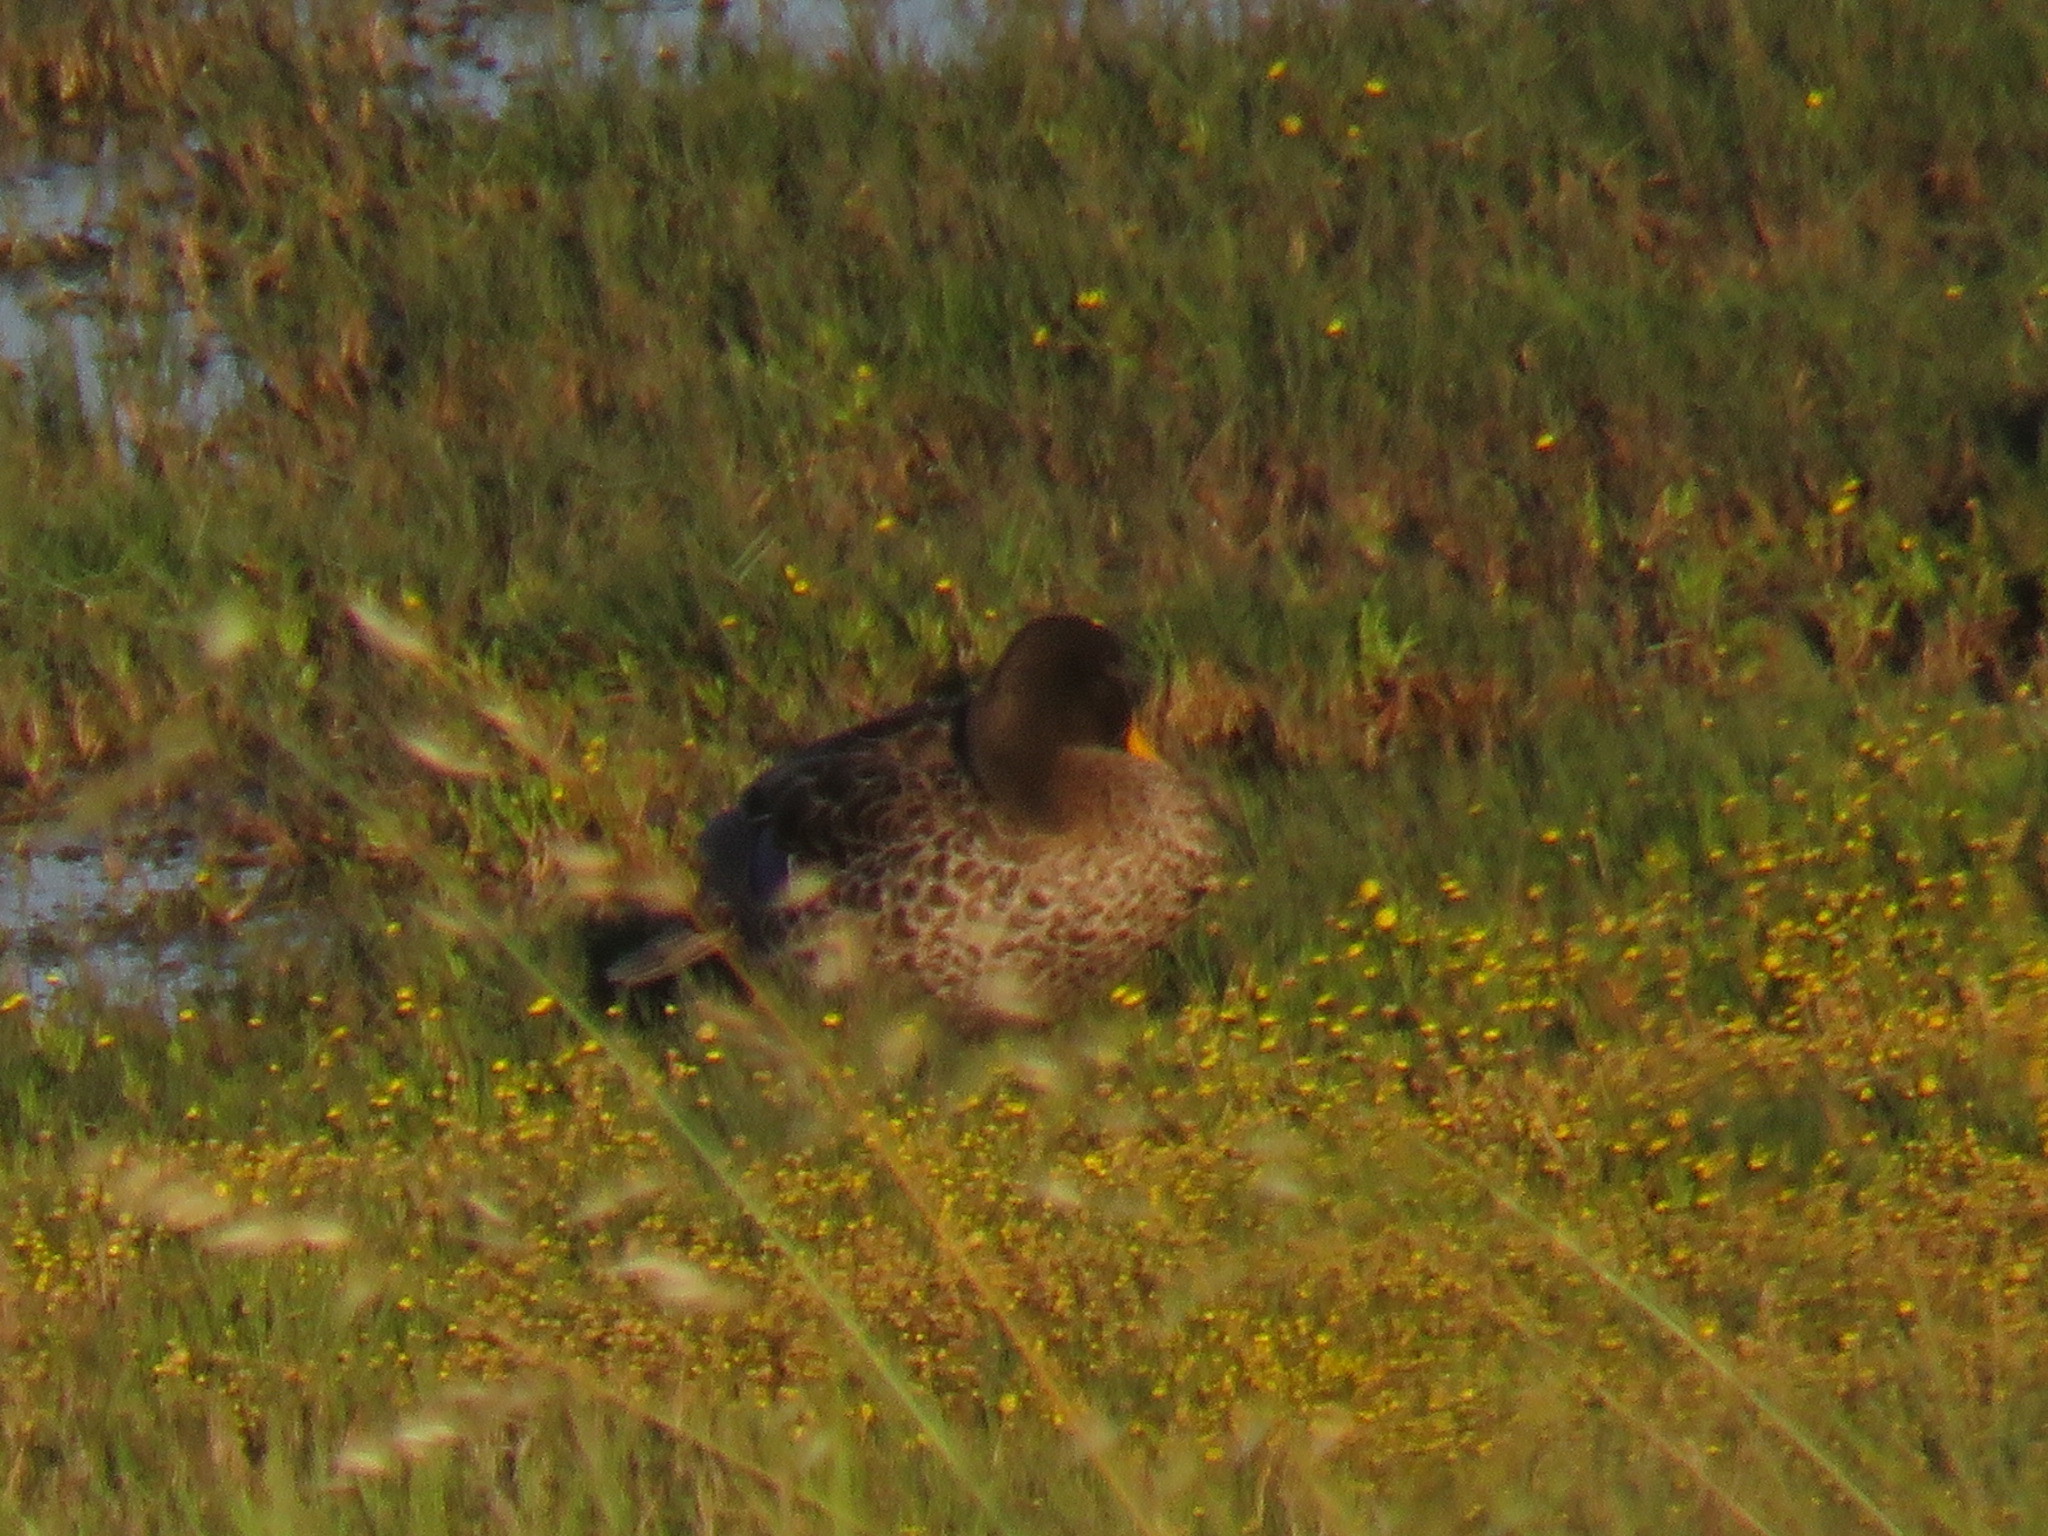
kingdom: Animalia
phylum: Chordata
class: Aves
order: Anseriformes
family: Anatidae
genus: Anas
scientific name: Anas undulata
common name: Yellow-billed duck
